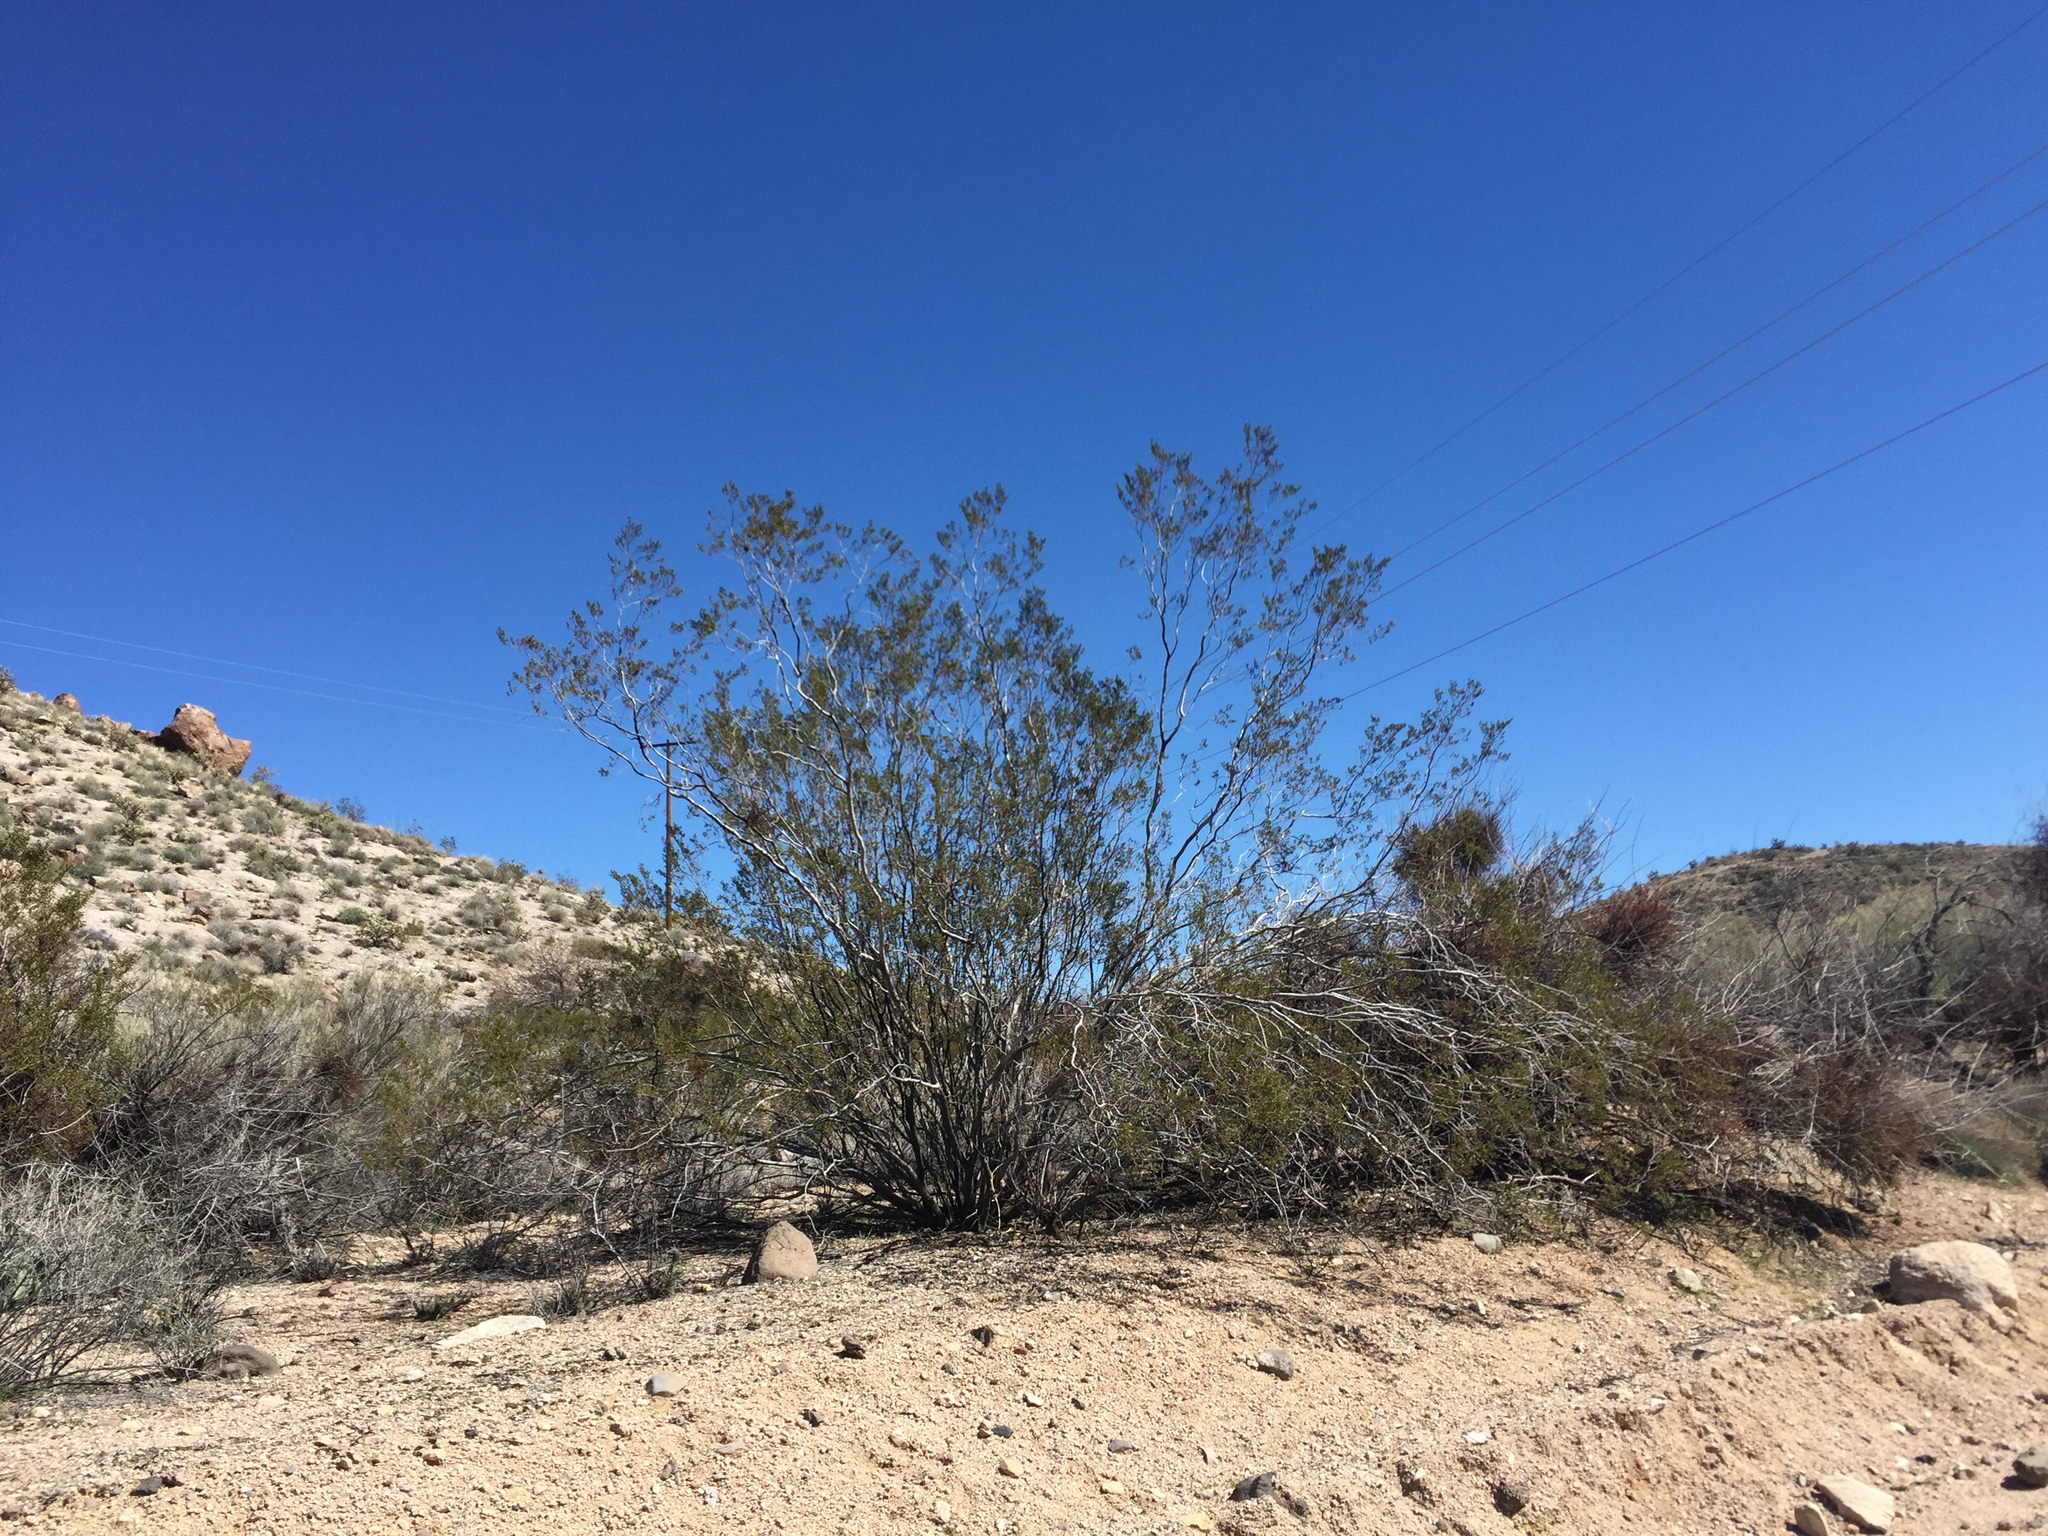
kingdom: Plantae
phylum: Tracheophyta
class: Magnoliopsida
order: Zygophyllales
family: Zygophyllaceae
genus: Larrea
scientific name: Larrea tridentata
